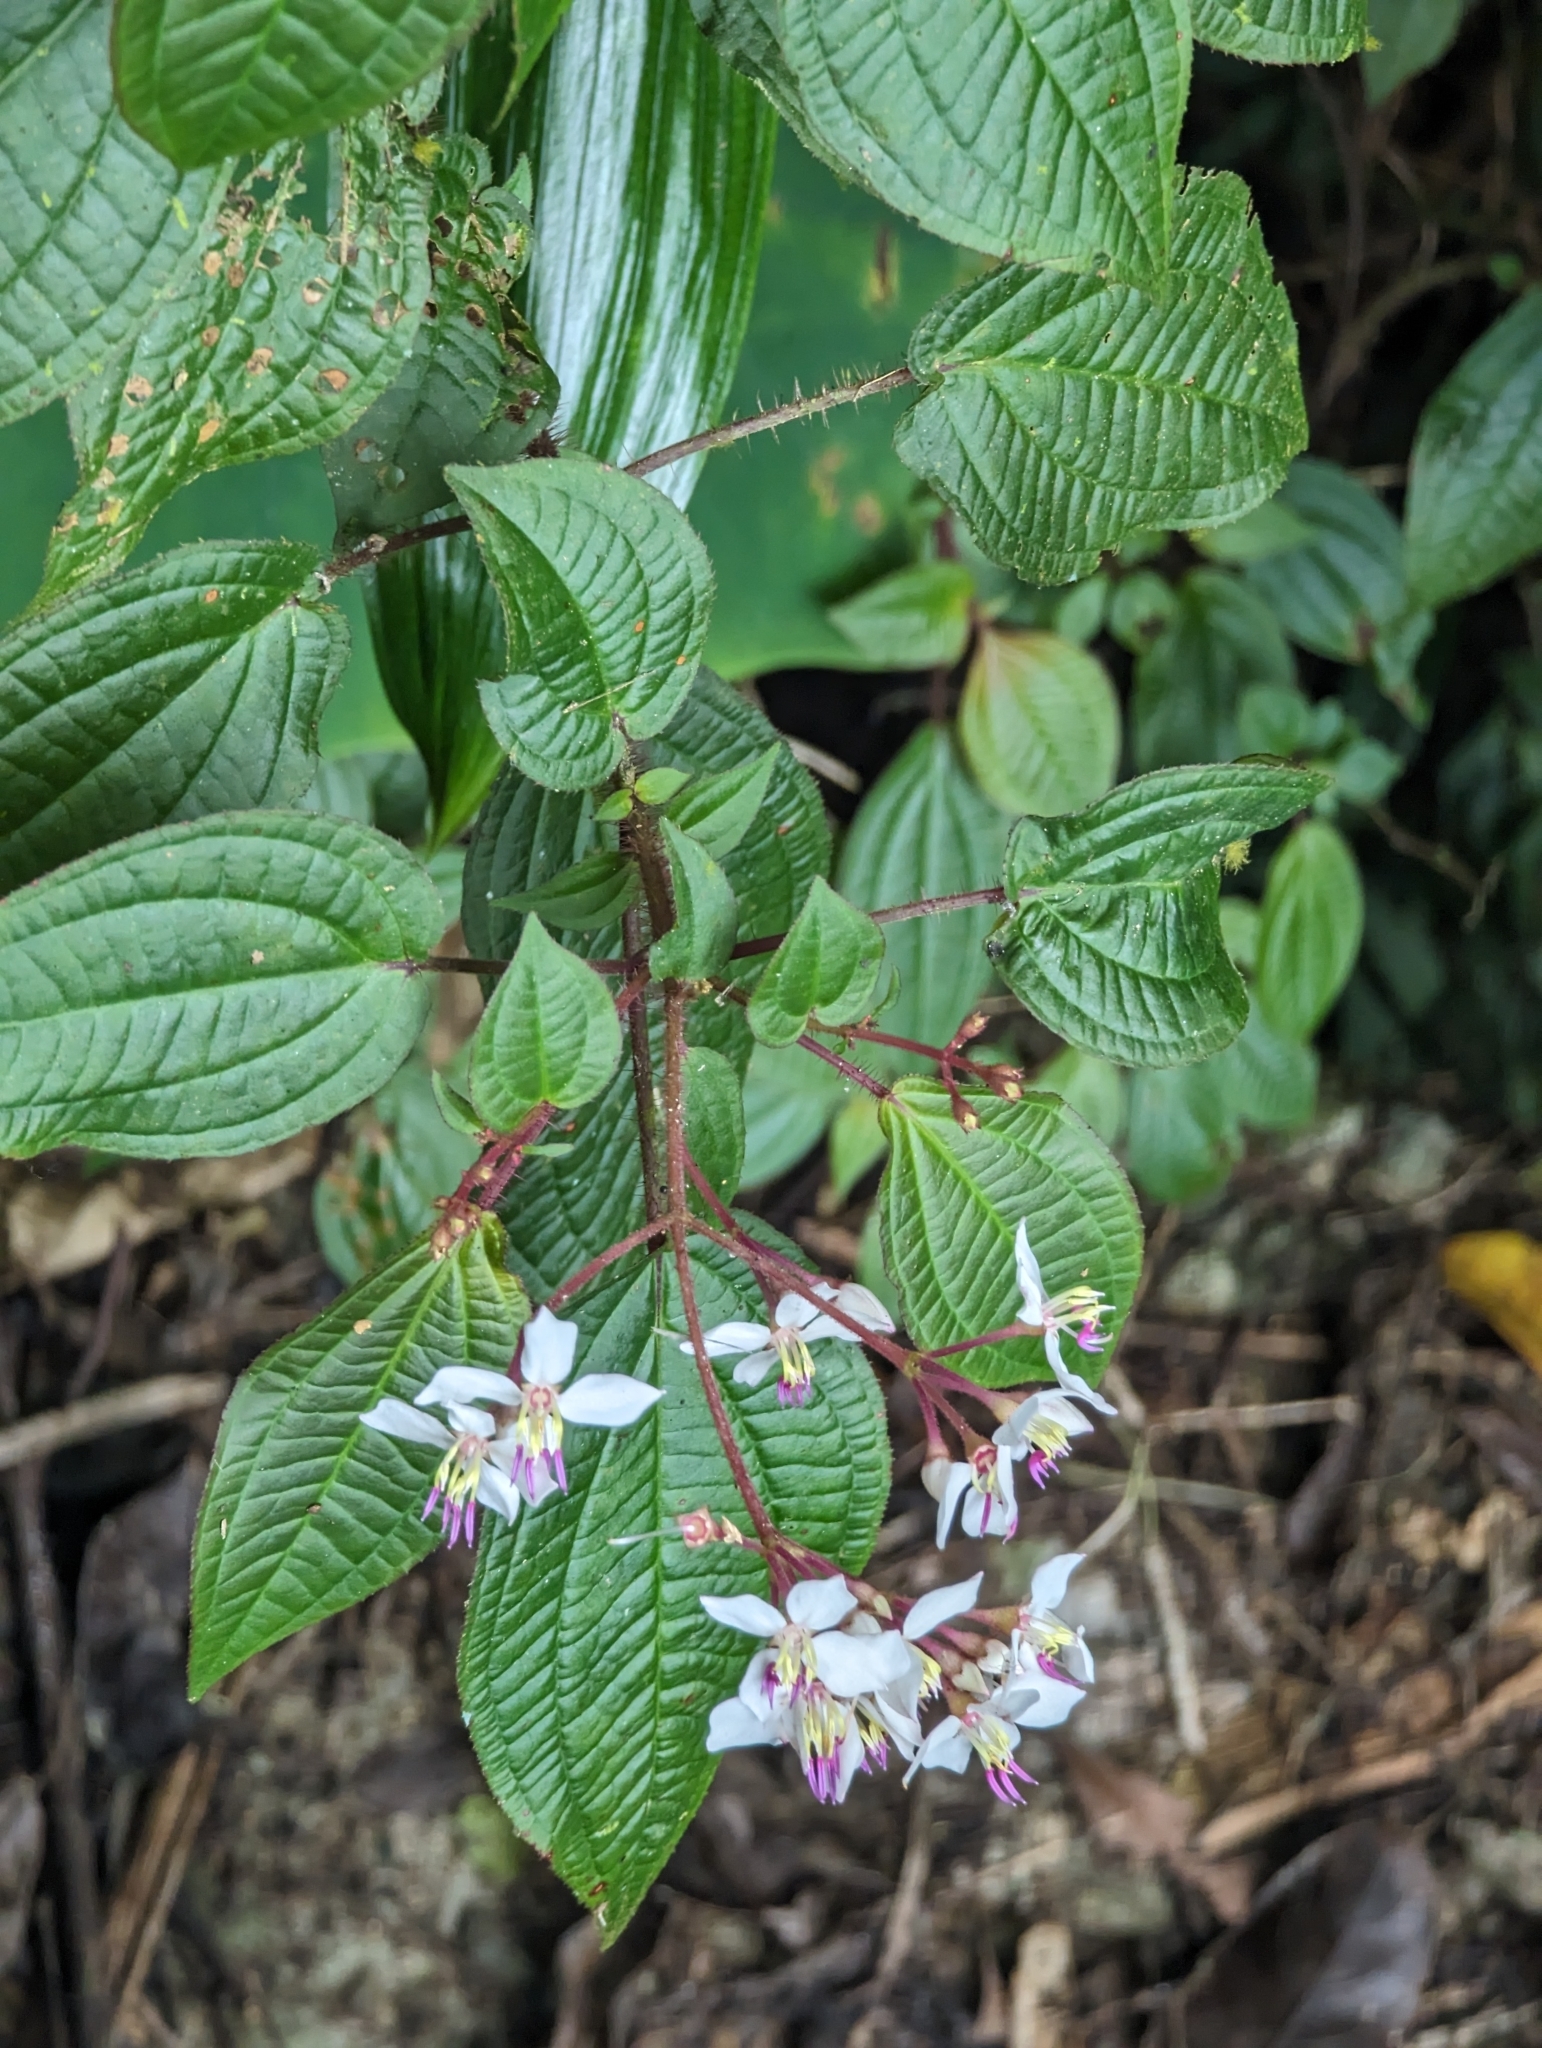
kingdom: Plantae
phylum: Tracheophyta
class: Magnoliopsida
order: Myrtales
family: Melastomataceae
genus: Bredia
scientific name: Bredia hirsuta
